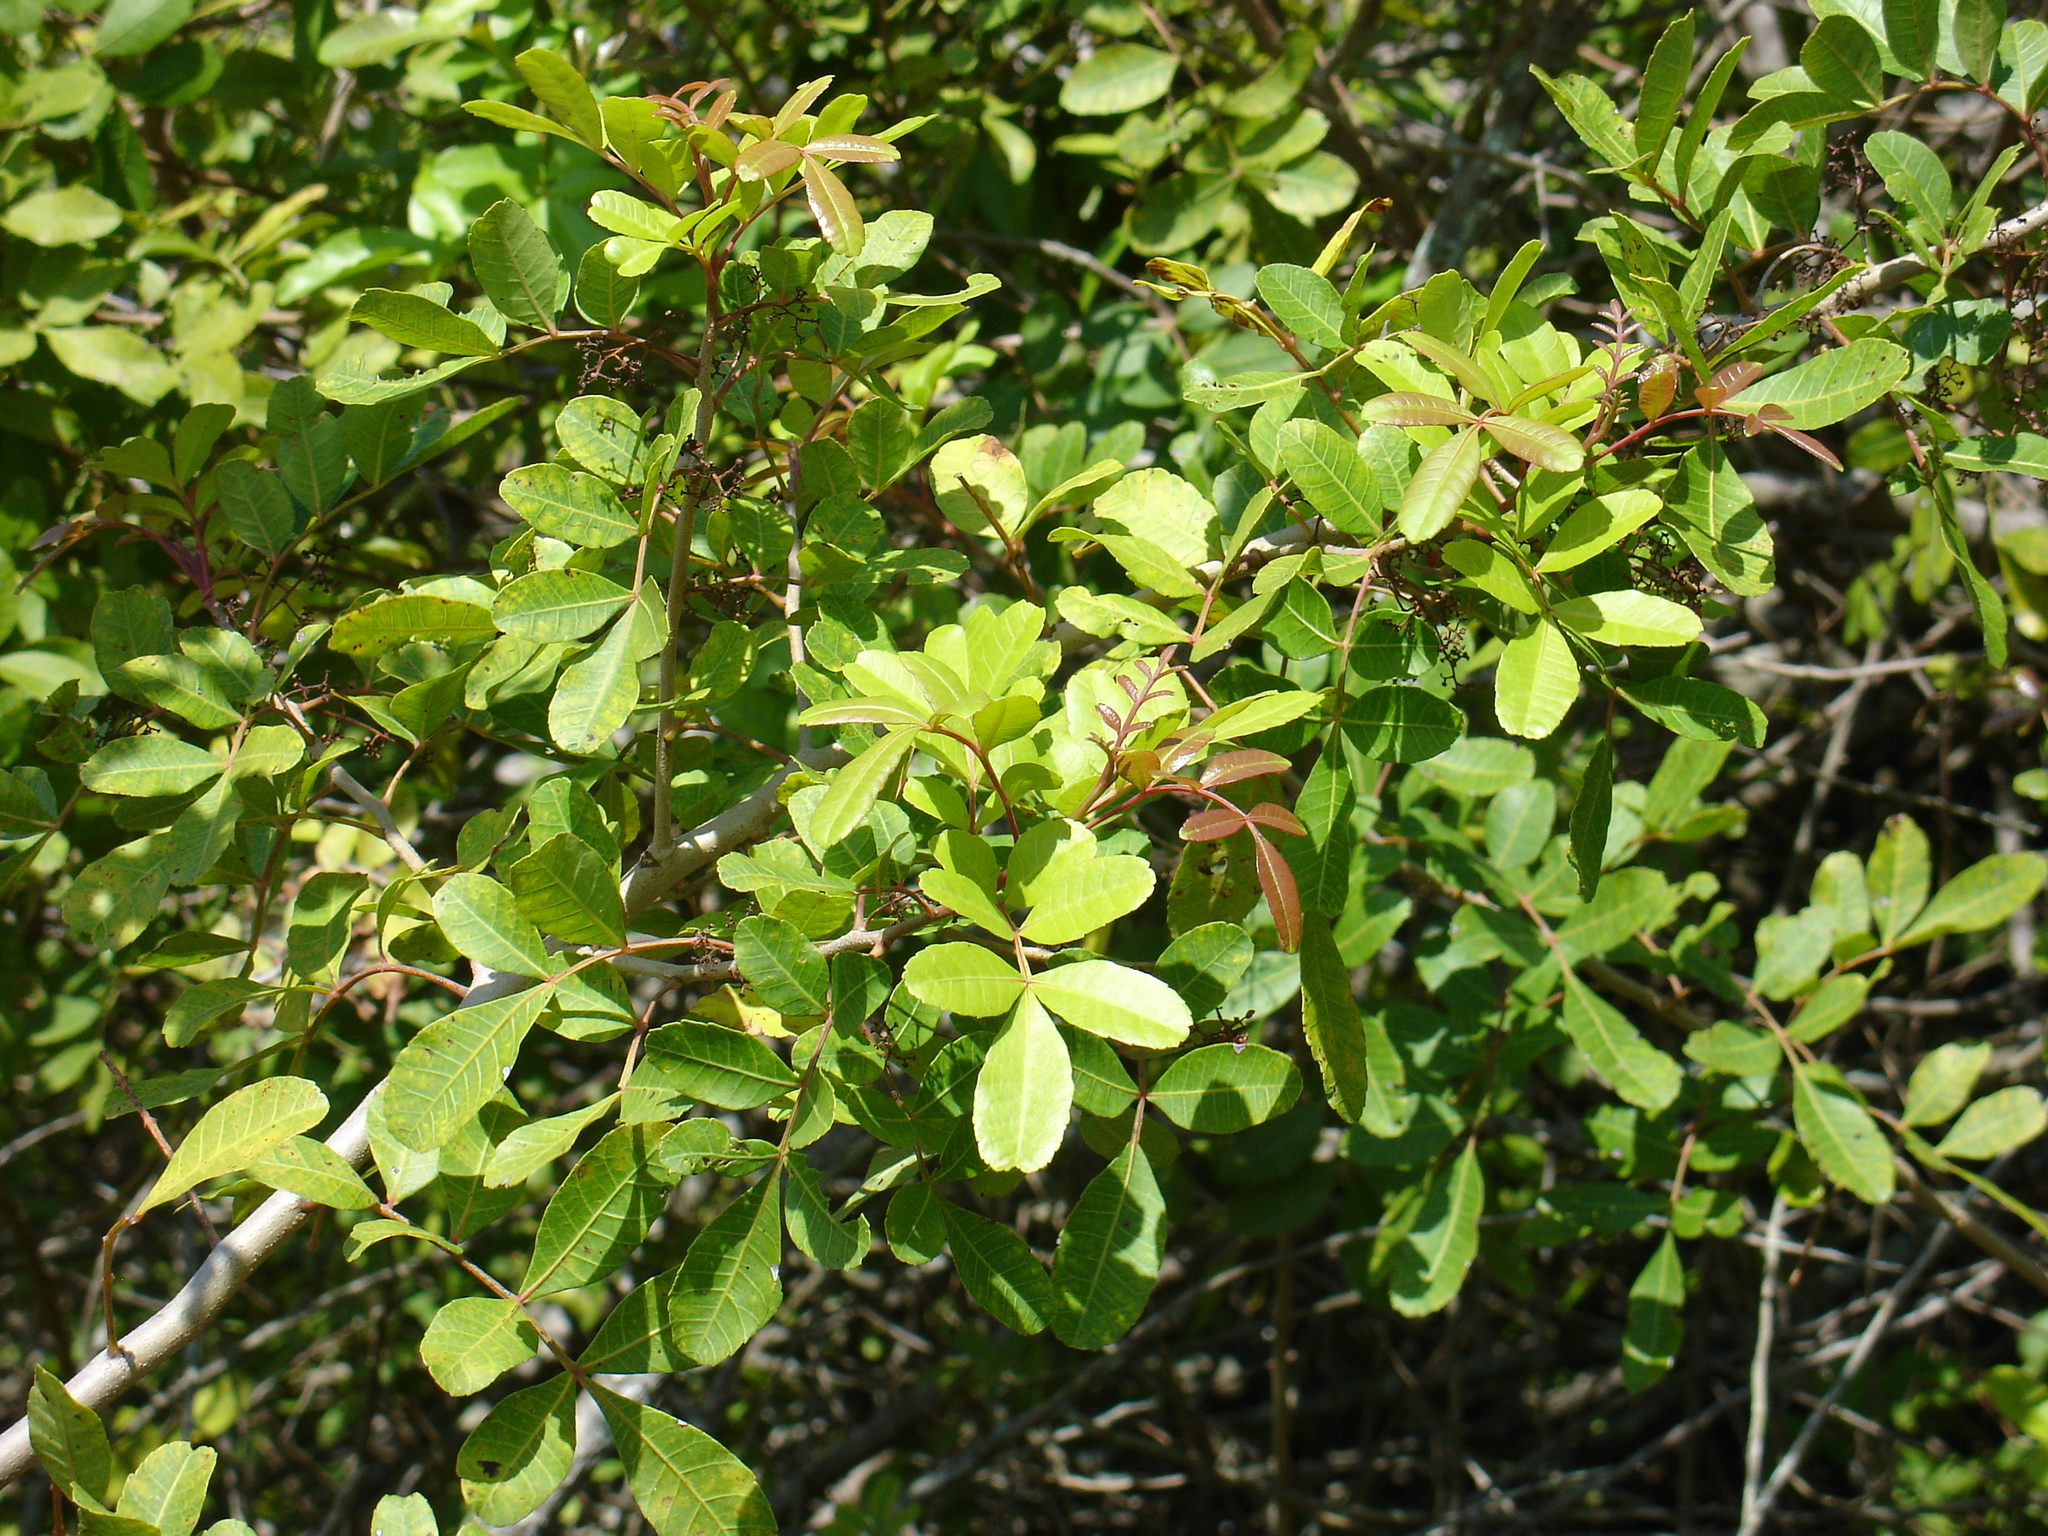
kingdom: Plantae
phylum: Tracheophyta
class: Magnoliopsida
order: Sapindales
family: Anacardiaceae
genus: Schinus
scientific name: Schinus terebinthifolia
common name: Brazilian peppertree
